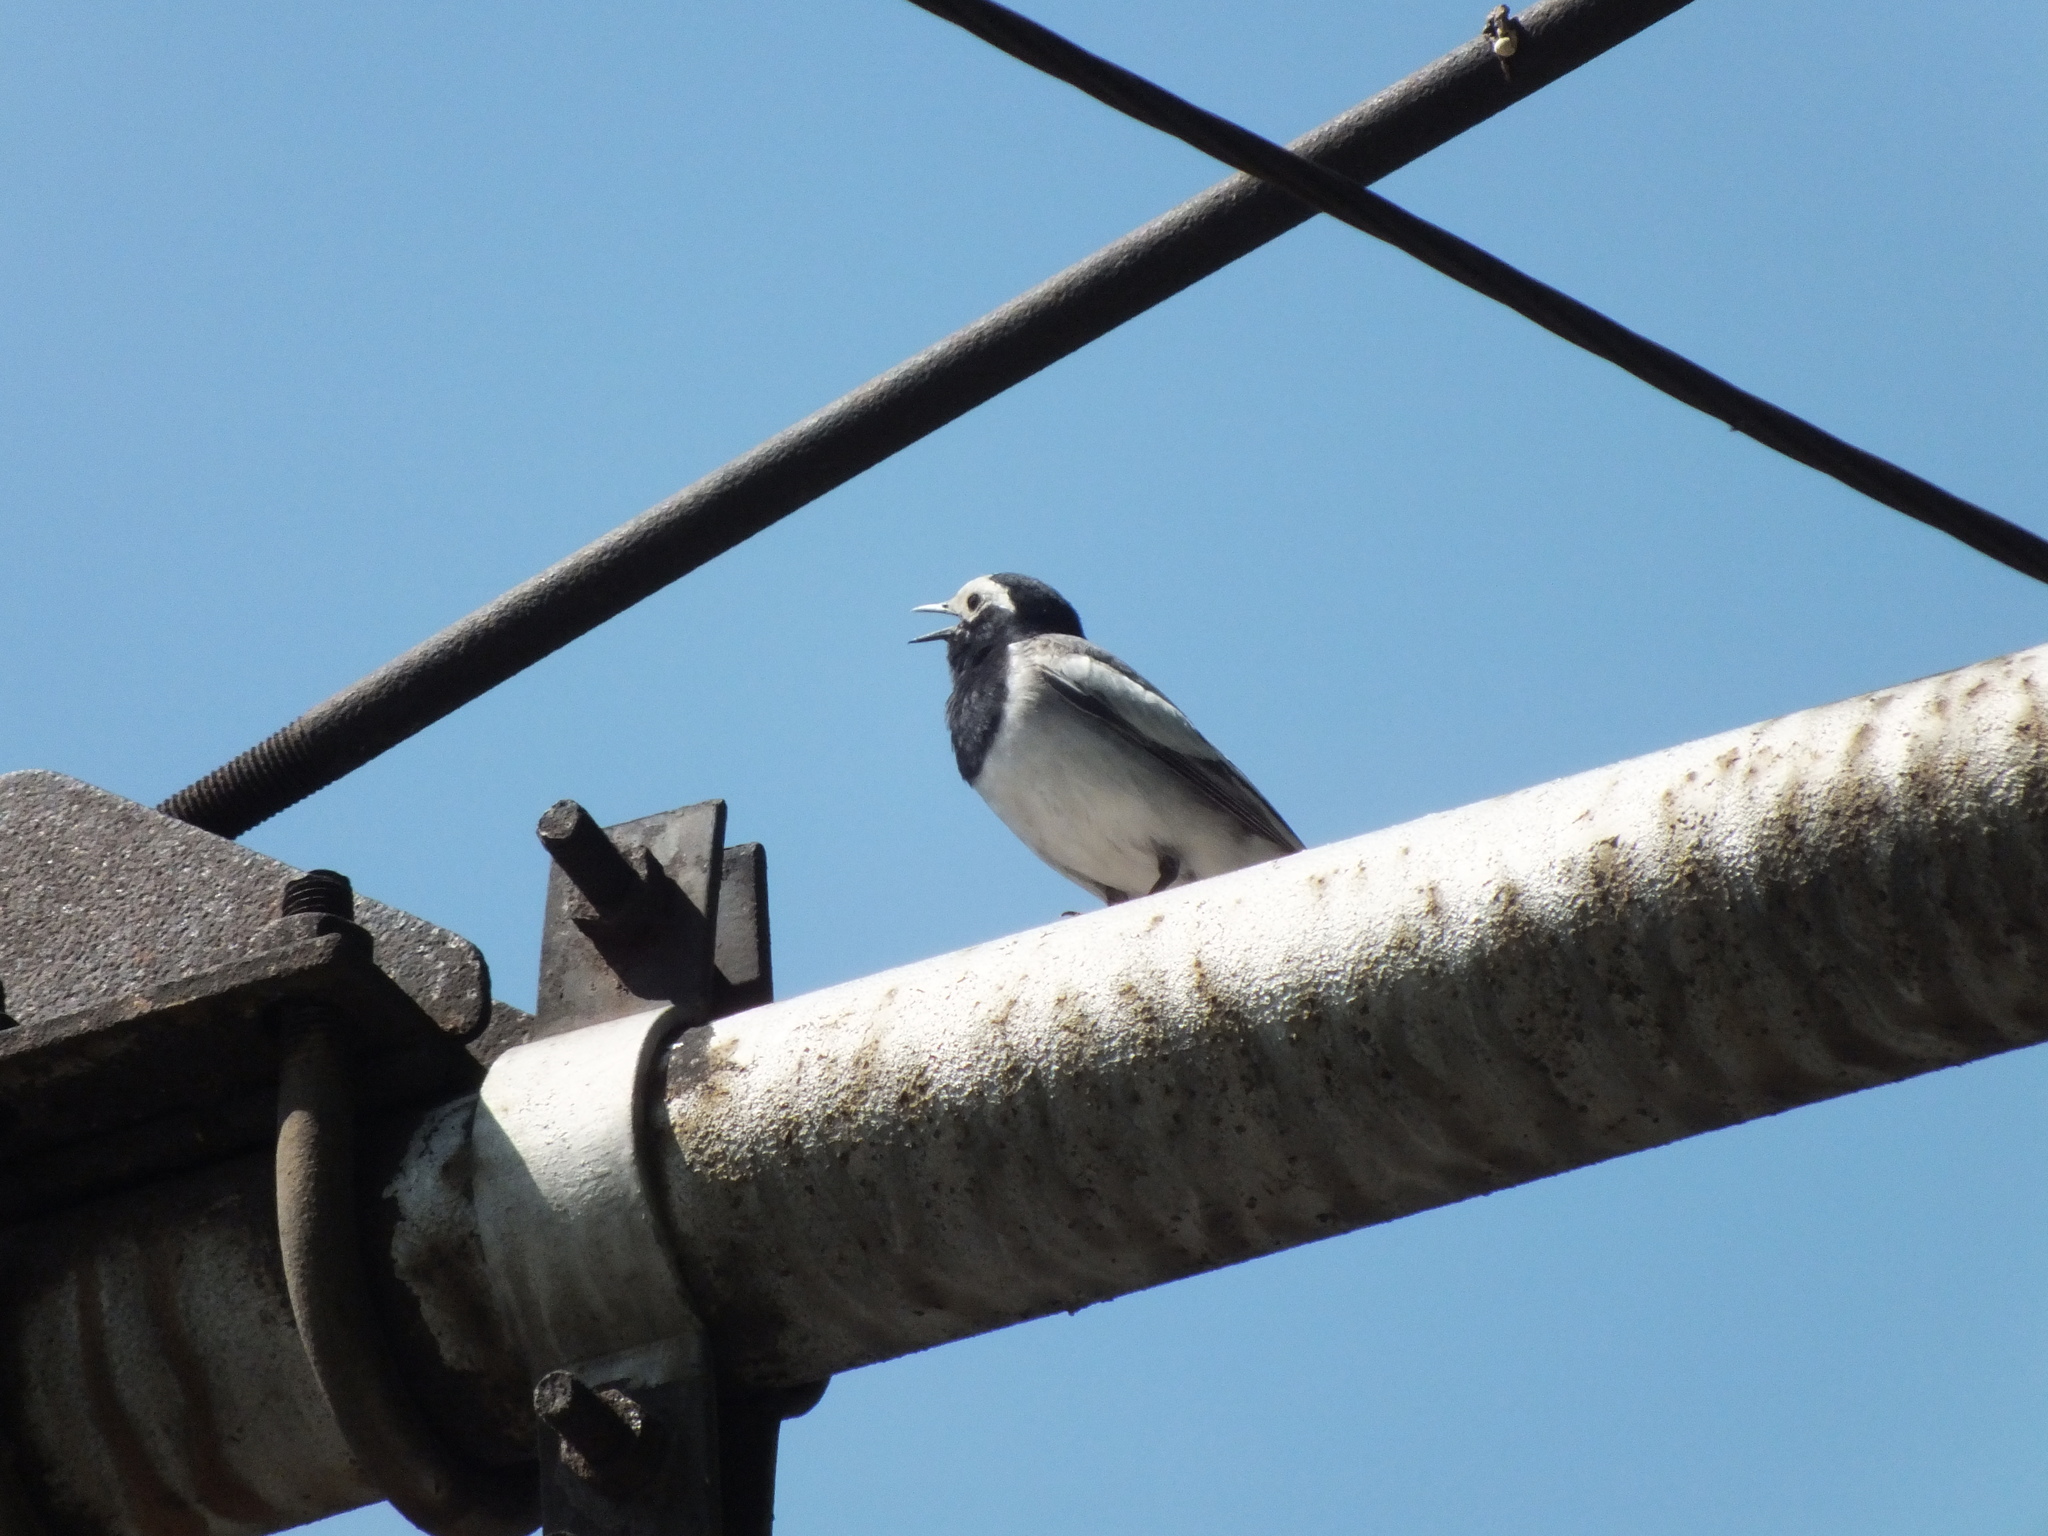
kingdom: Animalia
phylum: Chordata
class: Aves
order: Passeriformes
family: Motacillidae
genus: Motacilla
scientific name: Motacilla alba
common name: White wagtail
